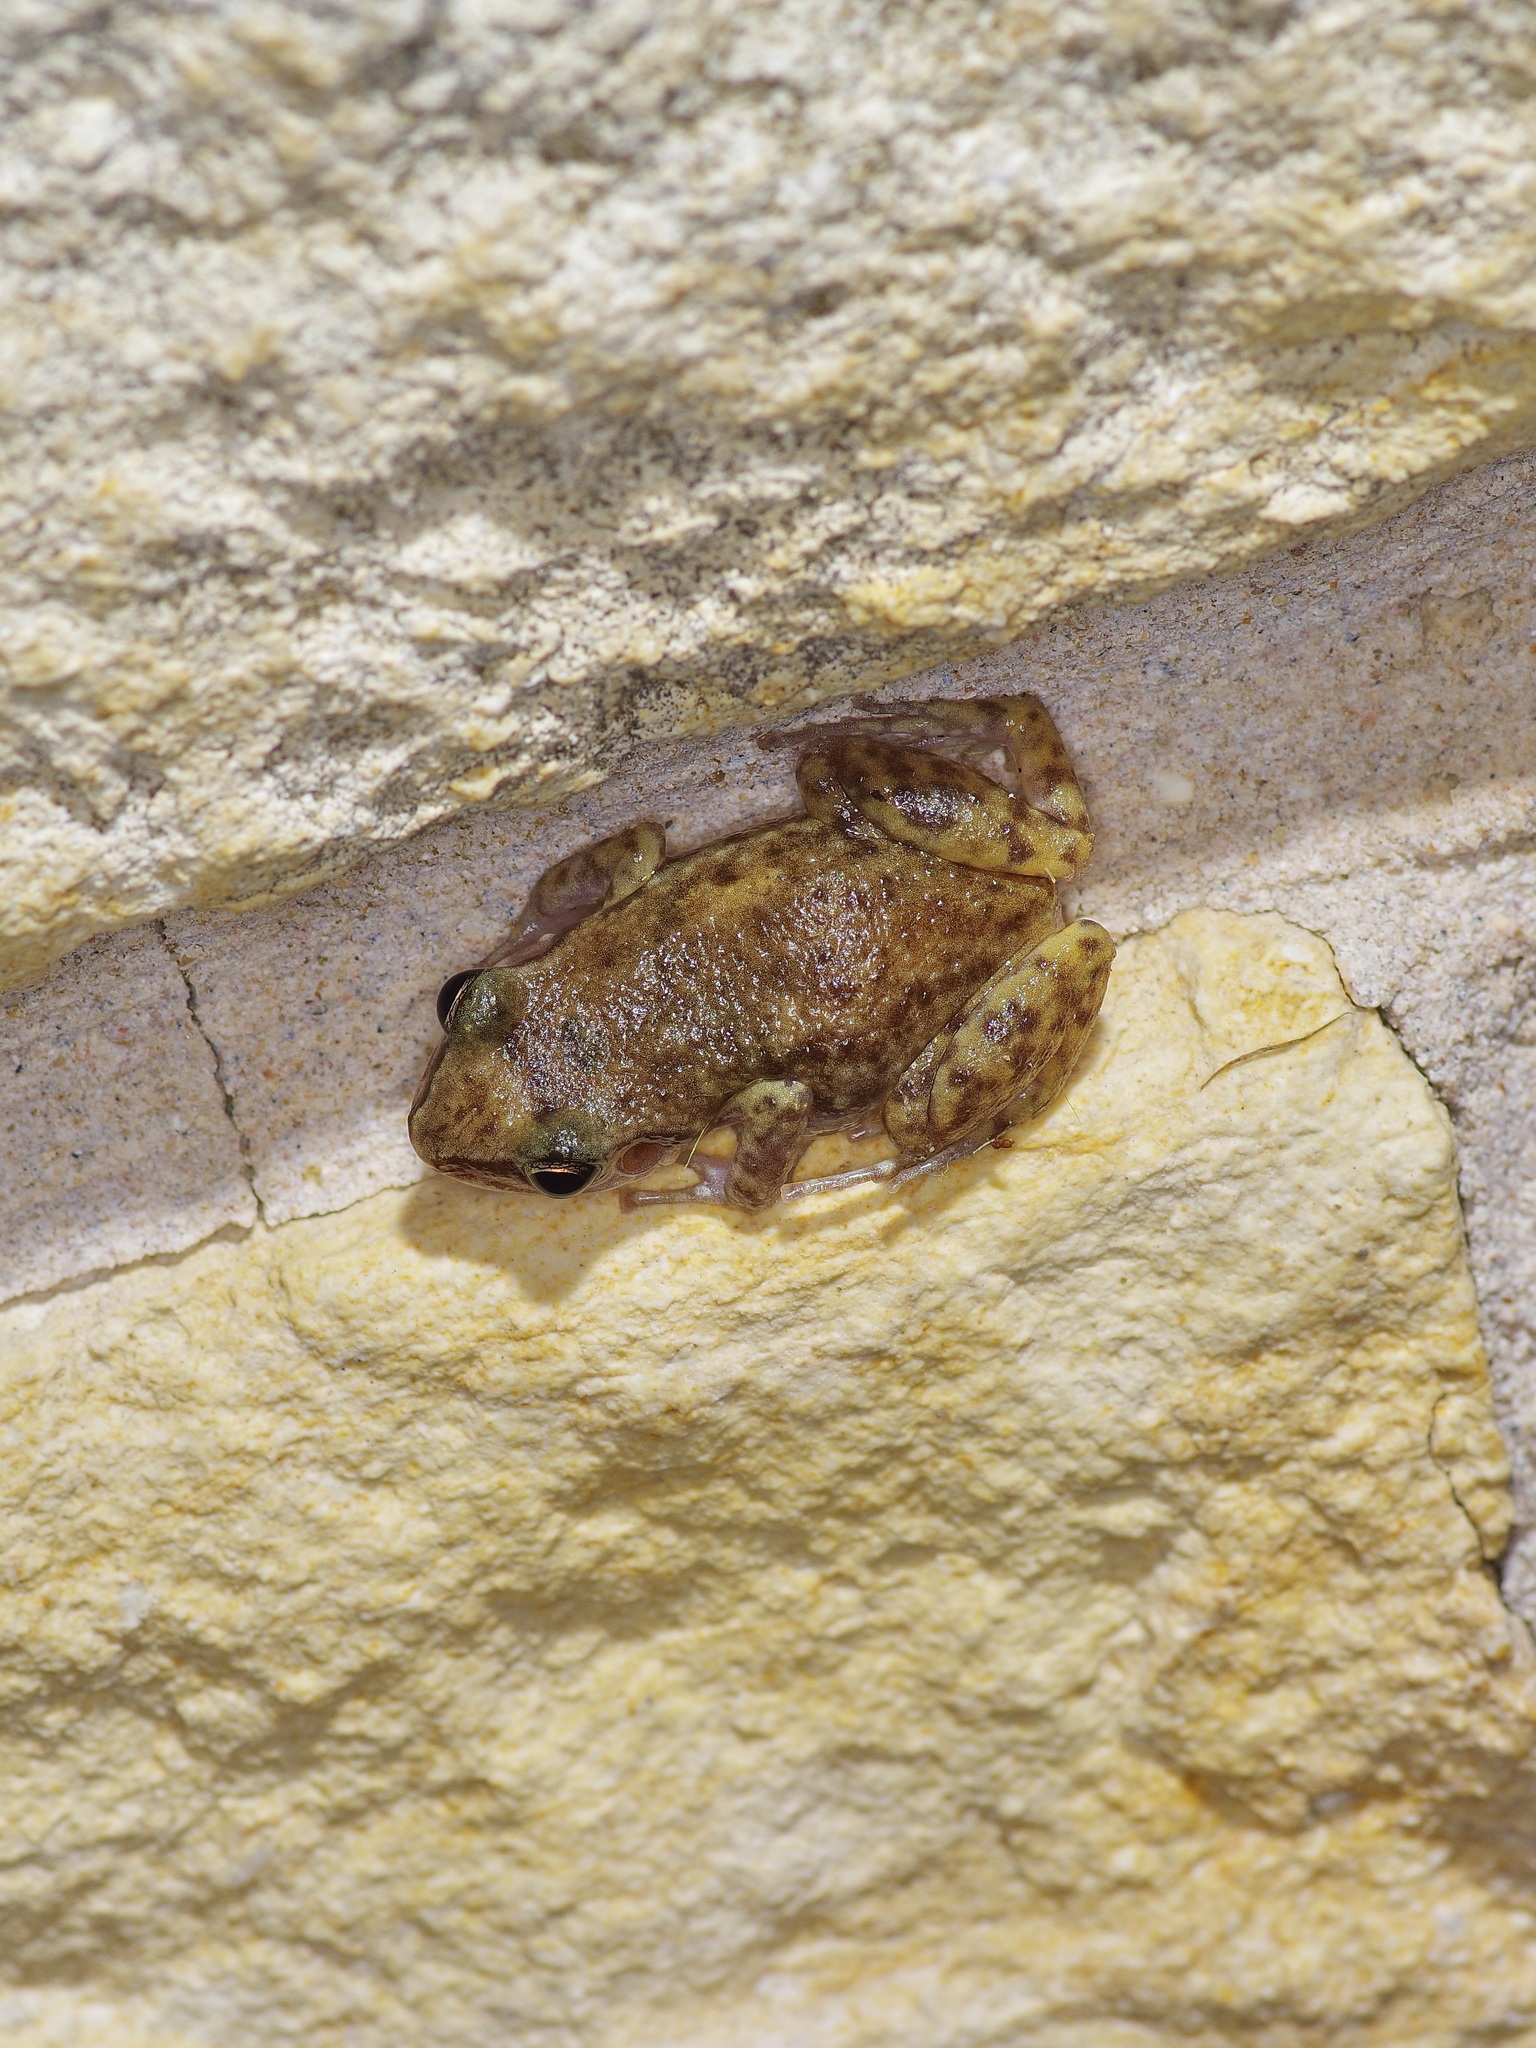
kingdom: Animalia
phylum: Chordata
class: Amphibia
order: Anura
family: Eleutherodactylidae
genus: Eleutherodactylus
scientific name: Eleutherodactylus campi
